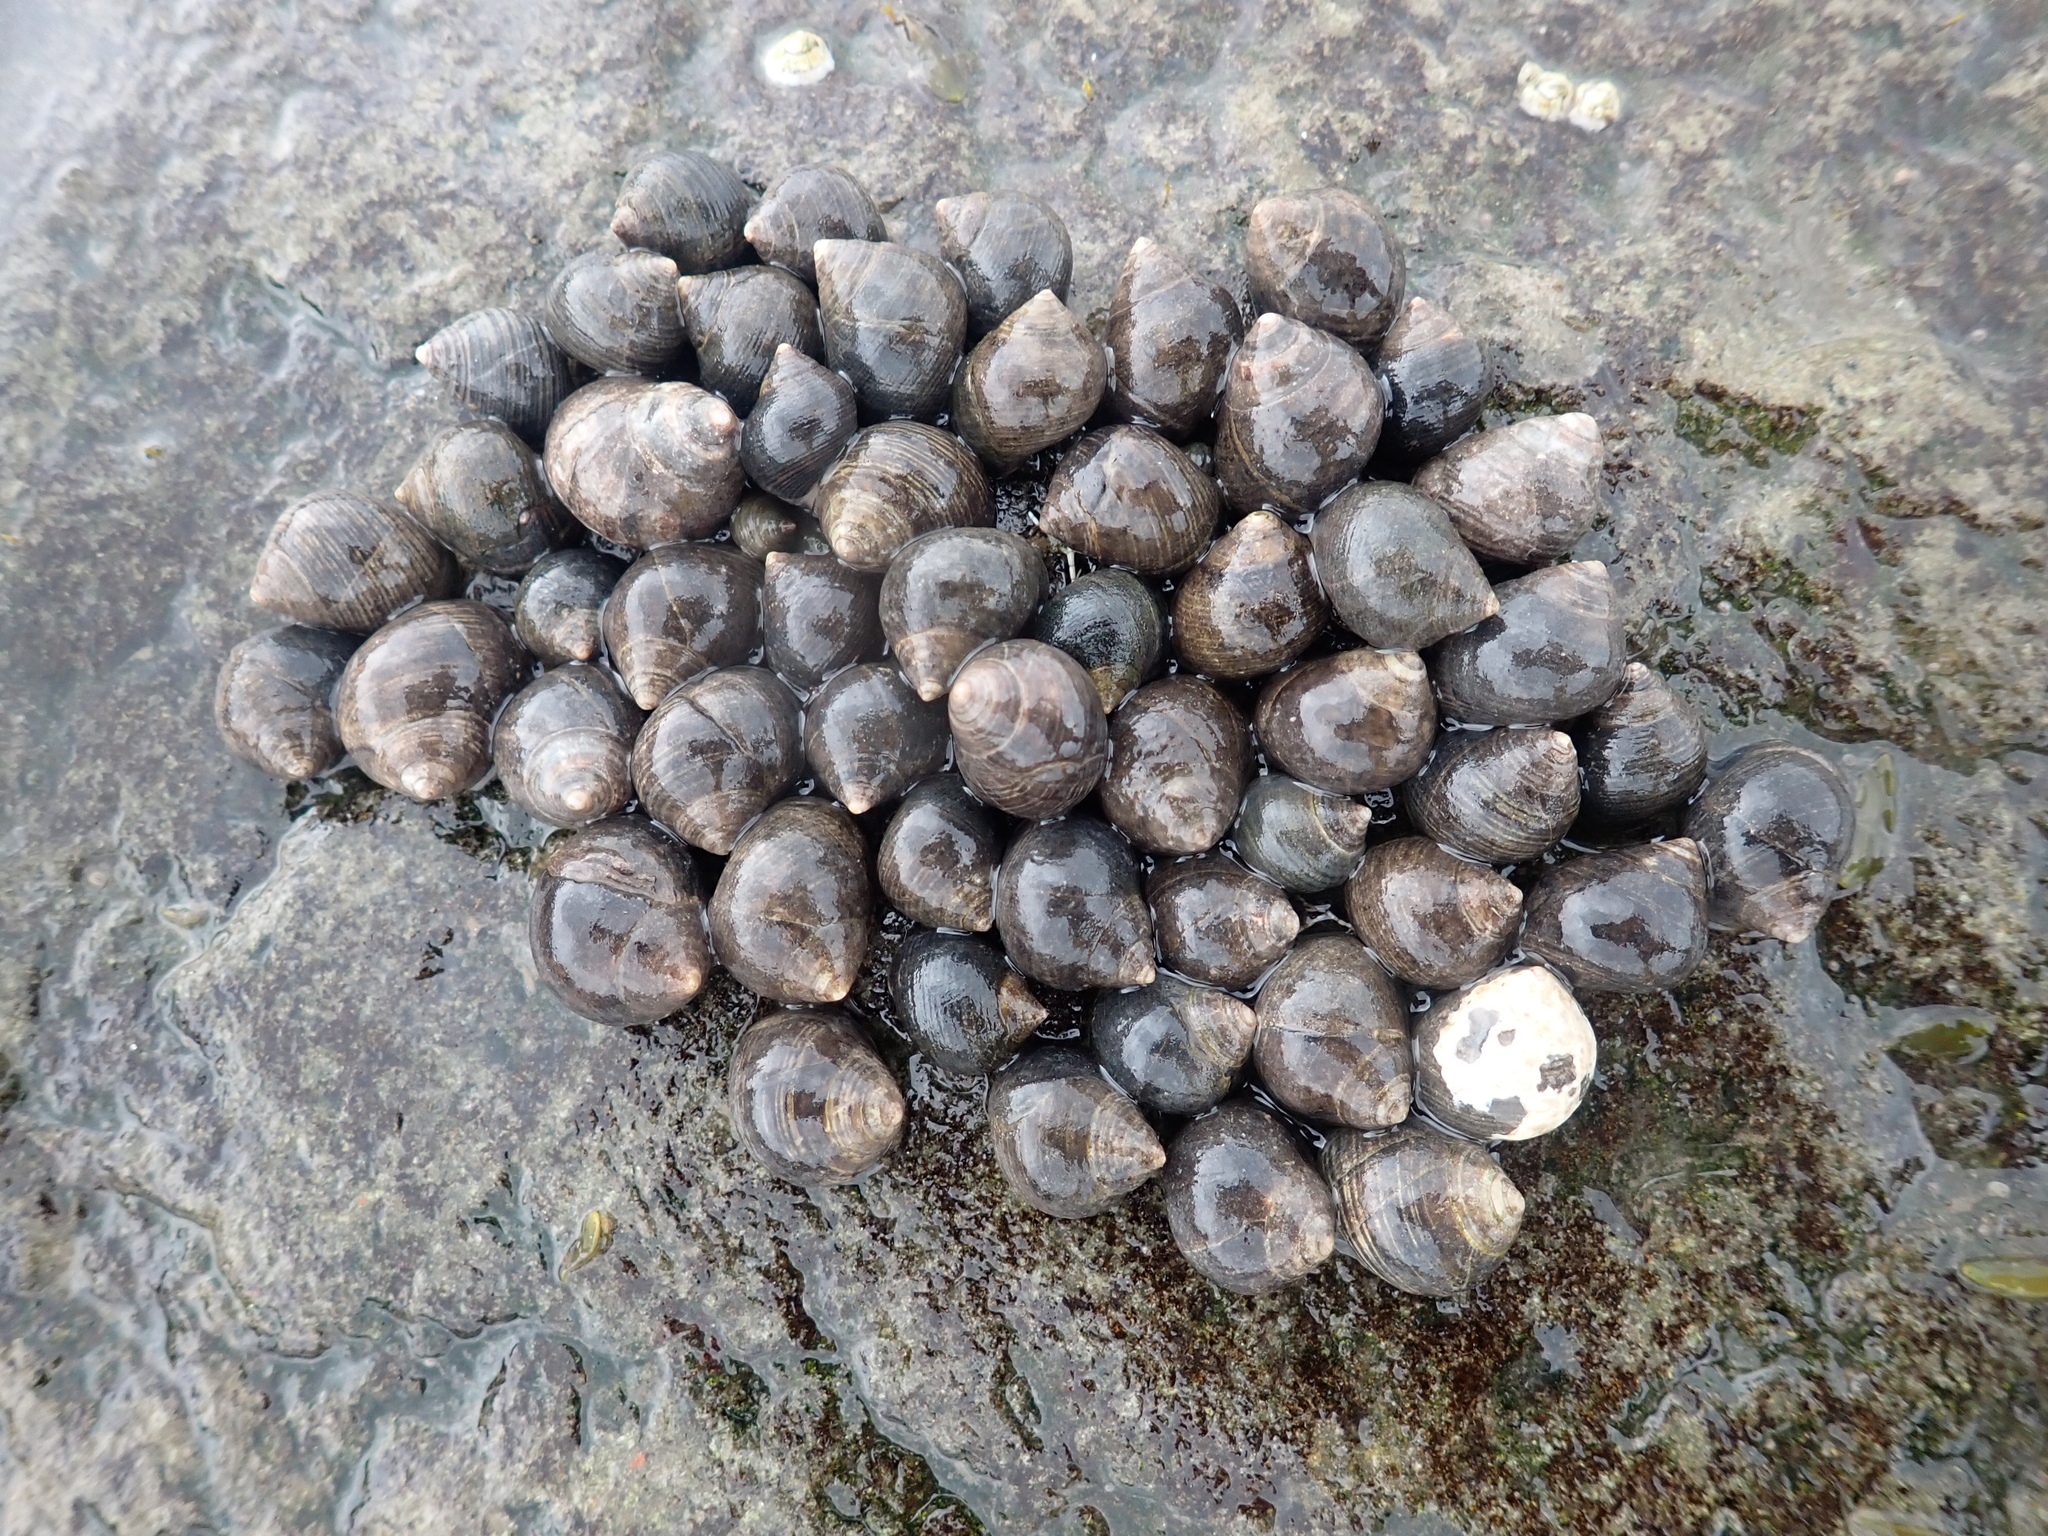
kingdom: Animalia
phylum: Mollusca
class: Gastropoda
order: Littorinimorpha
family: Littorinidae
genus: Littorina
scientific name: Littorina littorea
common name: Common periwinkle
